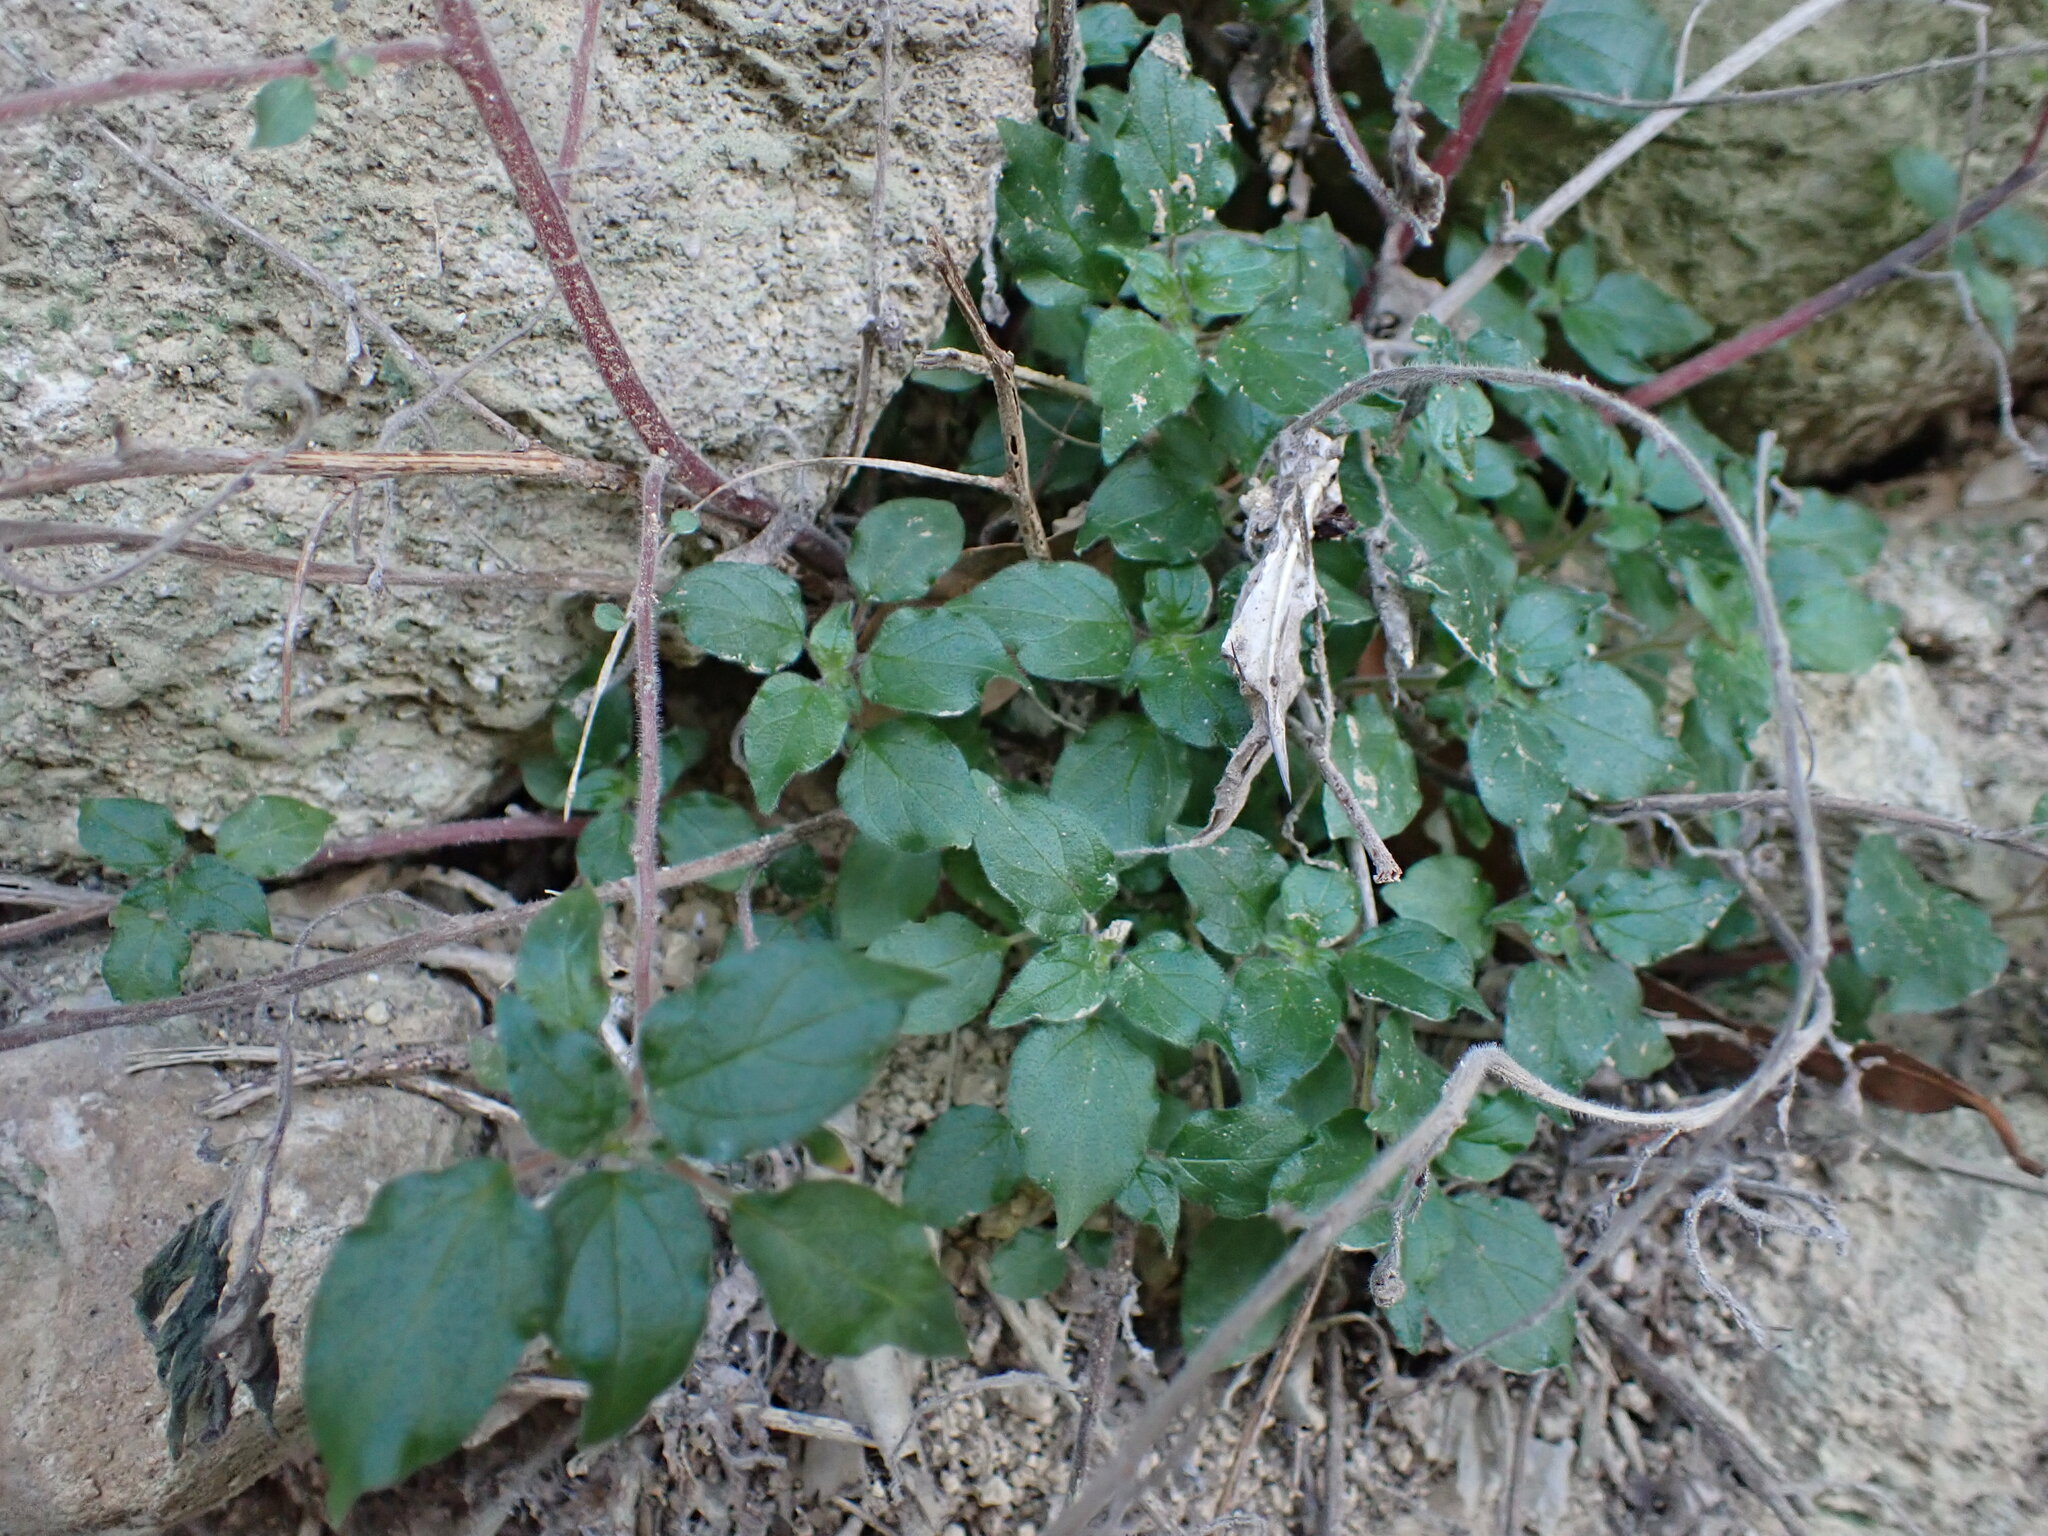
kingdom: Plantae
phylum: Tracheophyta
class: Magnoliopsida
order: Rosales
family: Urticaceae
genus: Parietaria
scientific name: Parietaria judaica
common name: Pellitory-of-the-wall
